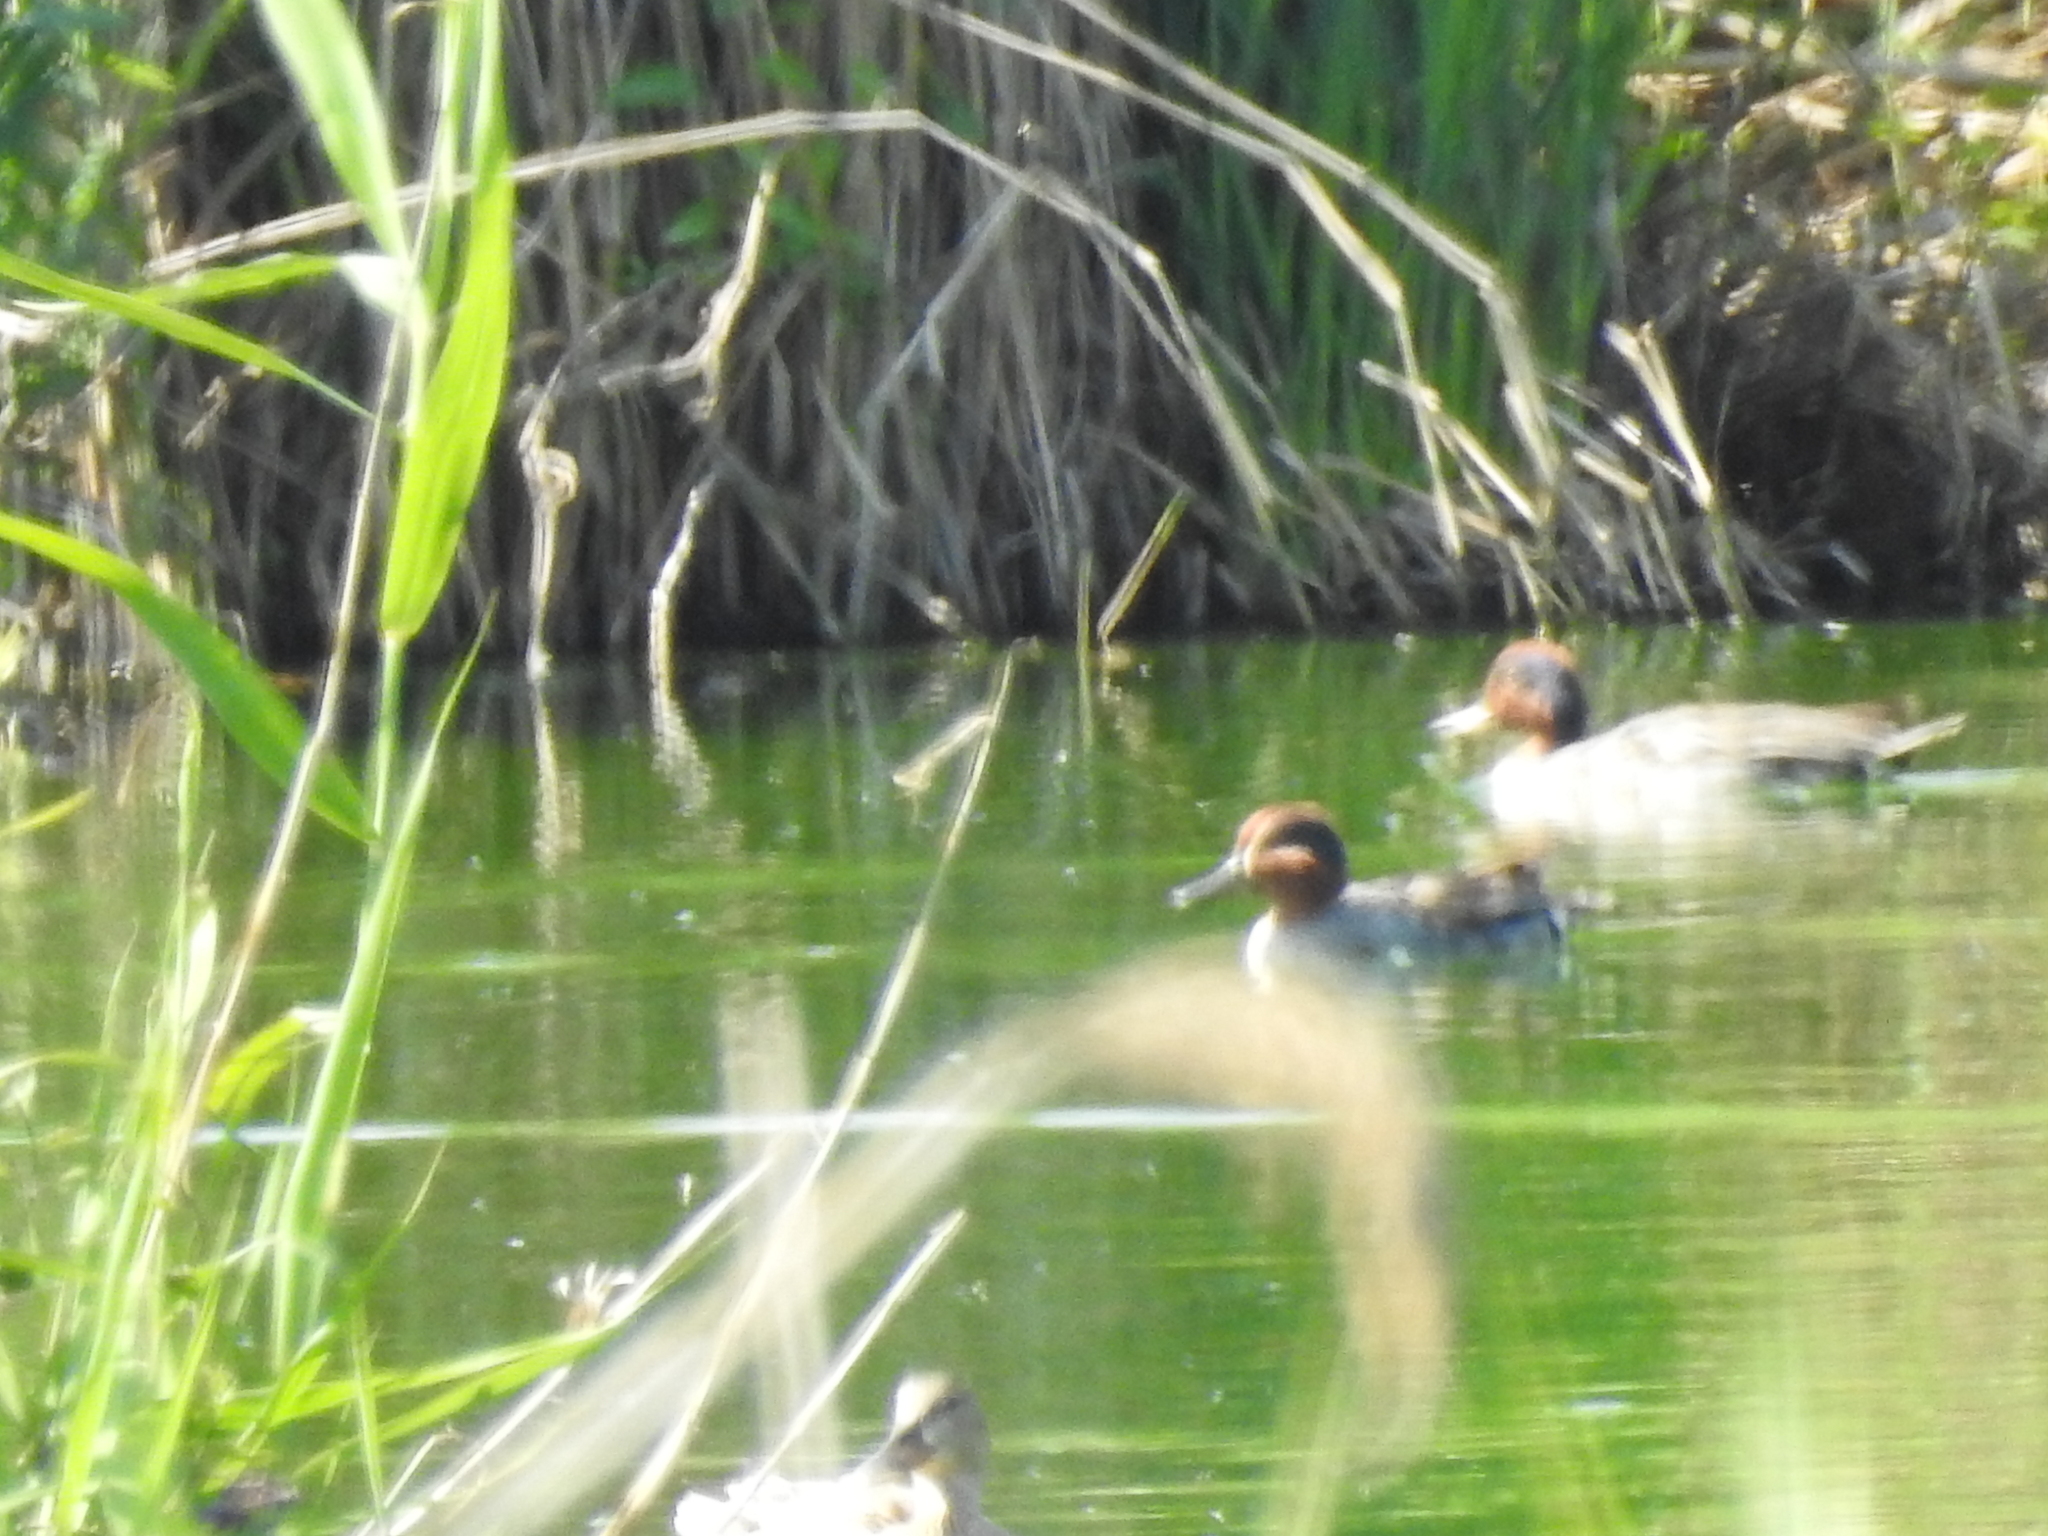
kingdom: Animalia
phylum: Chordata
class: Aves
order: Anseriformes
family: Anatidae
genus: Anas
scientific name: Anas crecca
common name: Eurasian teal
